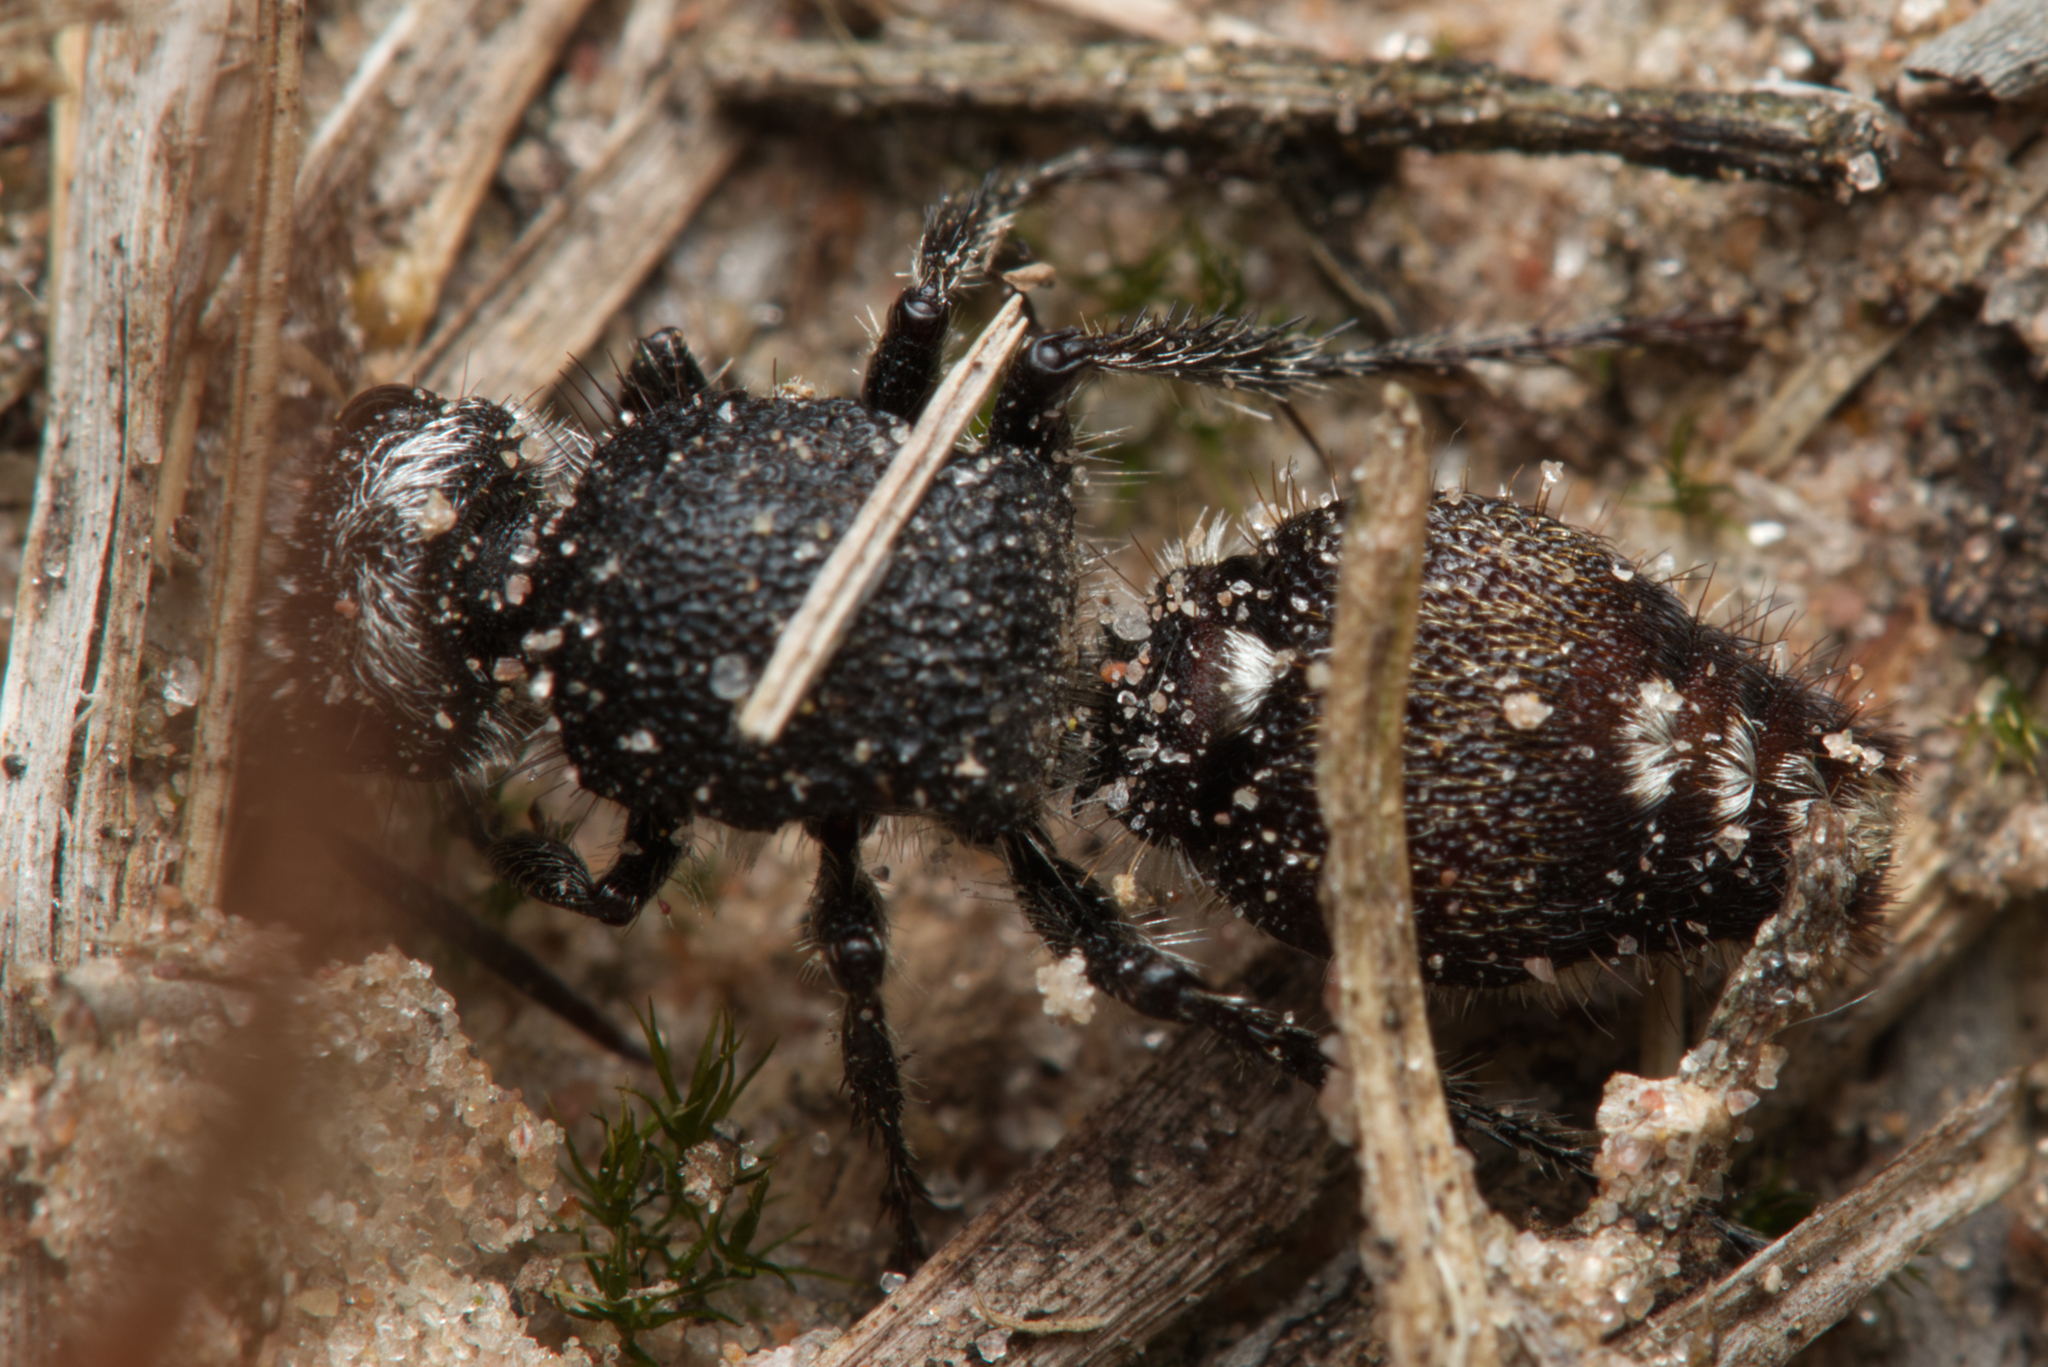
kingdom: Animalia
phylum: Arthropoda
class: Insecta
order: Hymenoptera
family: Mutillidae
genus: Ephutomorpha
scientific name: Ephutomorpha
